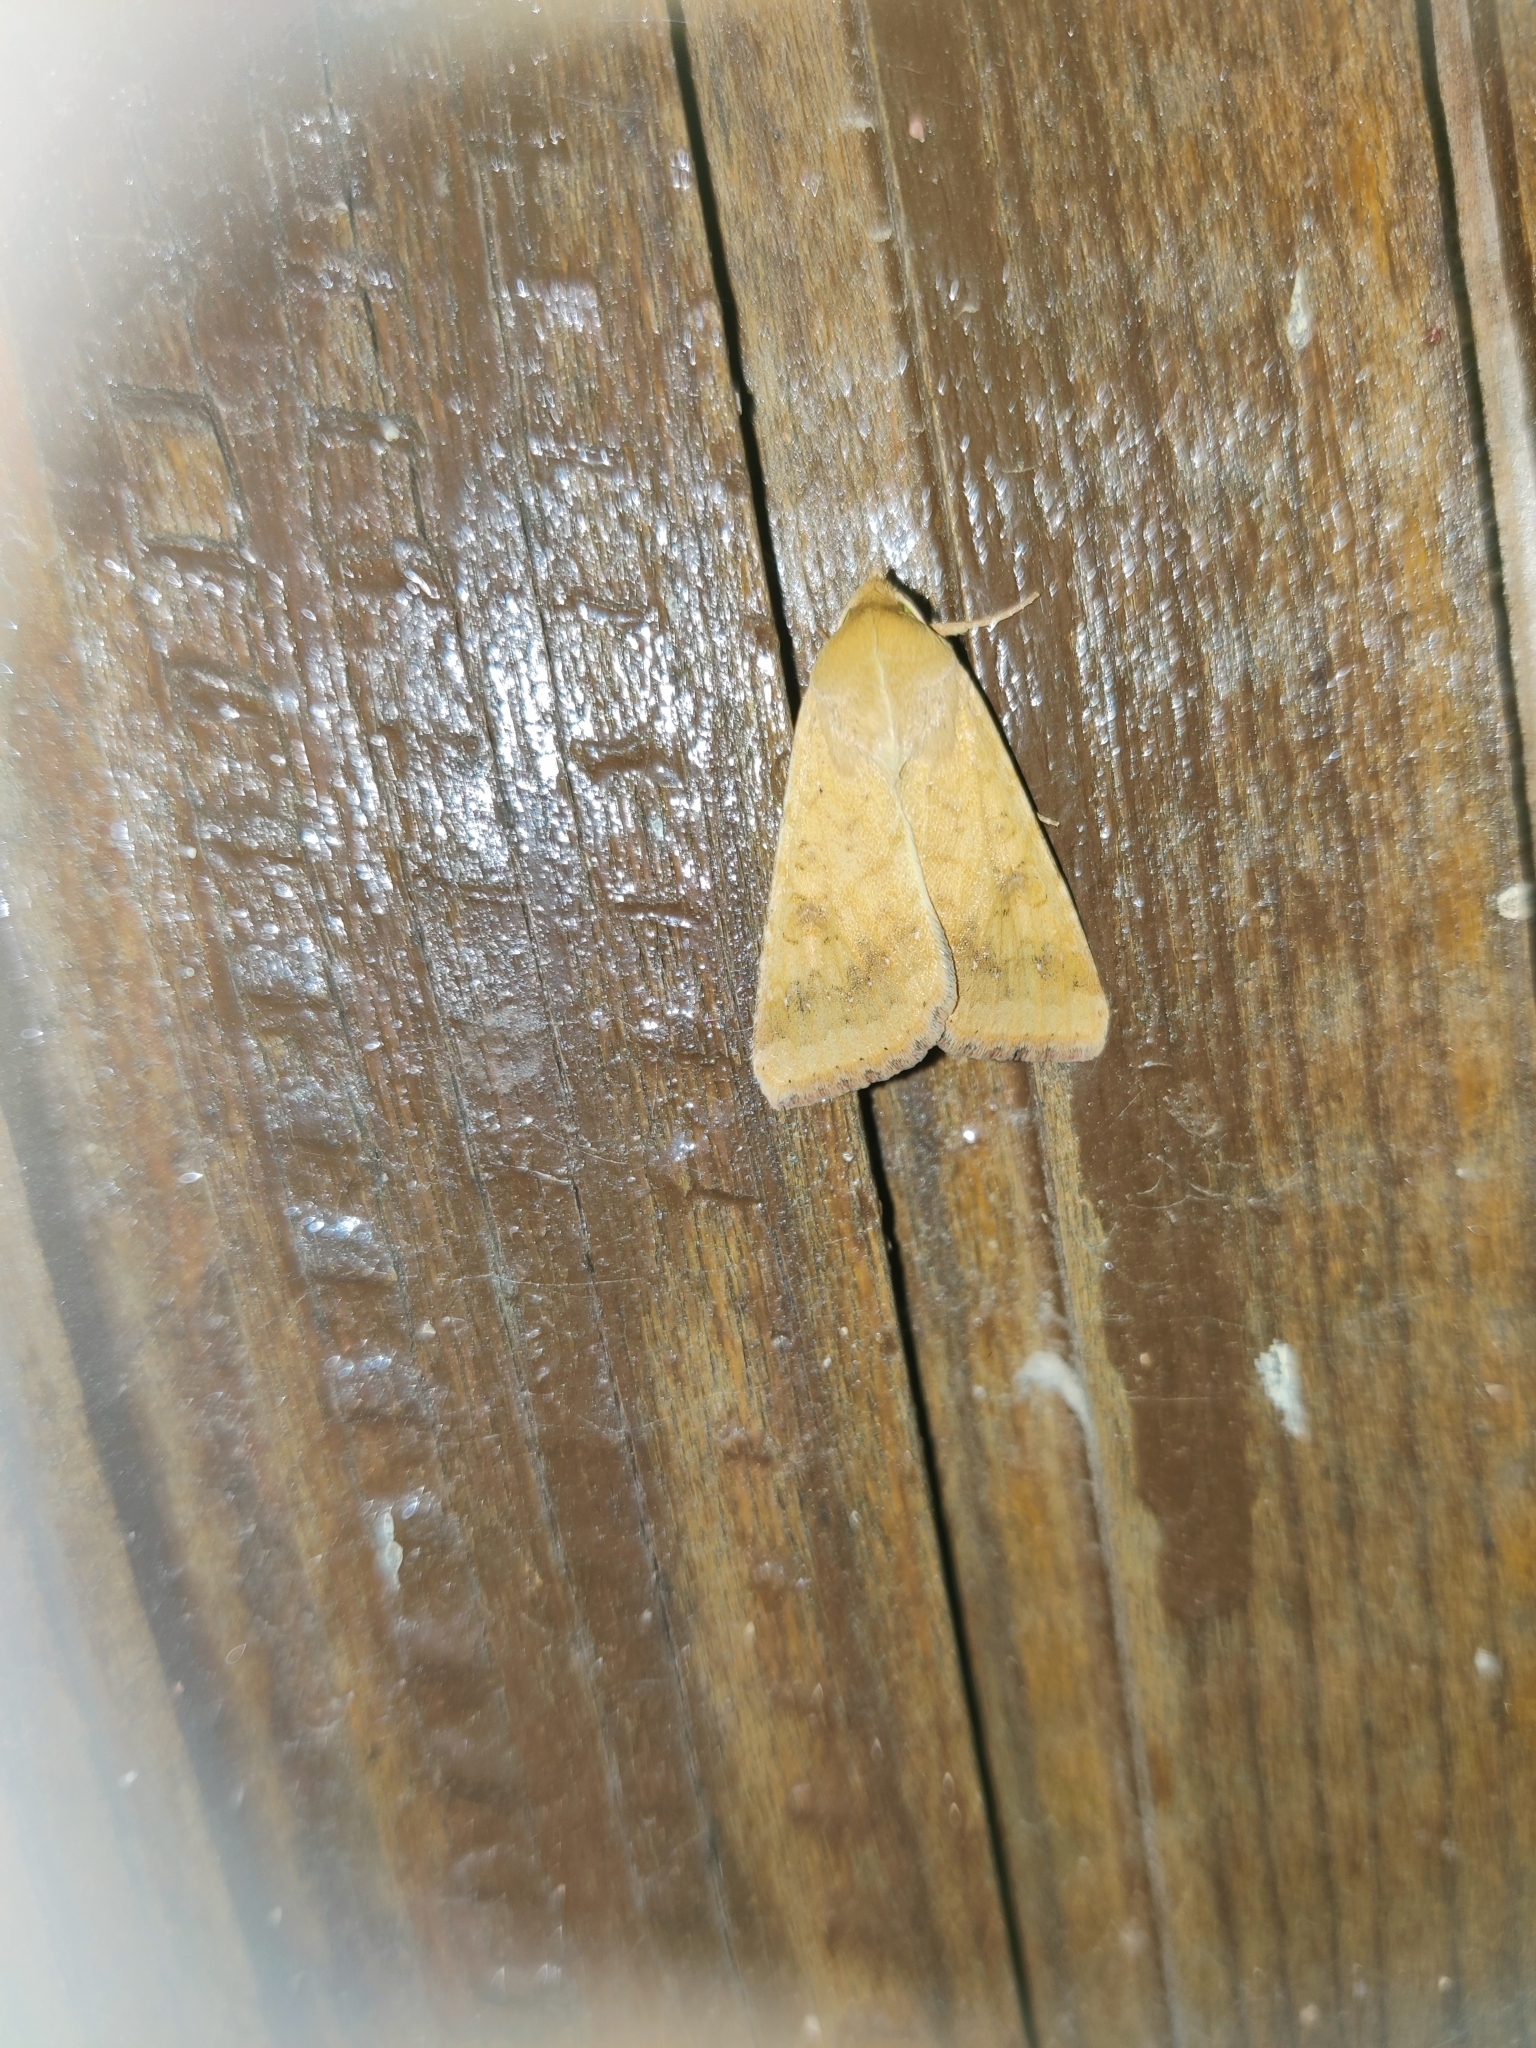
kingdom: Animalia
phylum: Arthropoda
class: Insecta
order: Lepidoptera
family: Noctuidae
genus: Helicoverpa
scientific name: Helicoverpa armigera
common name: Cotton bollworm
